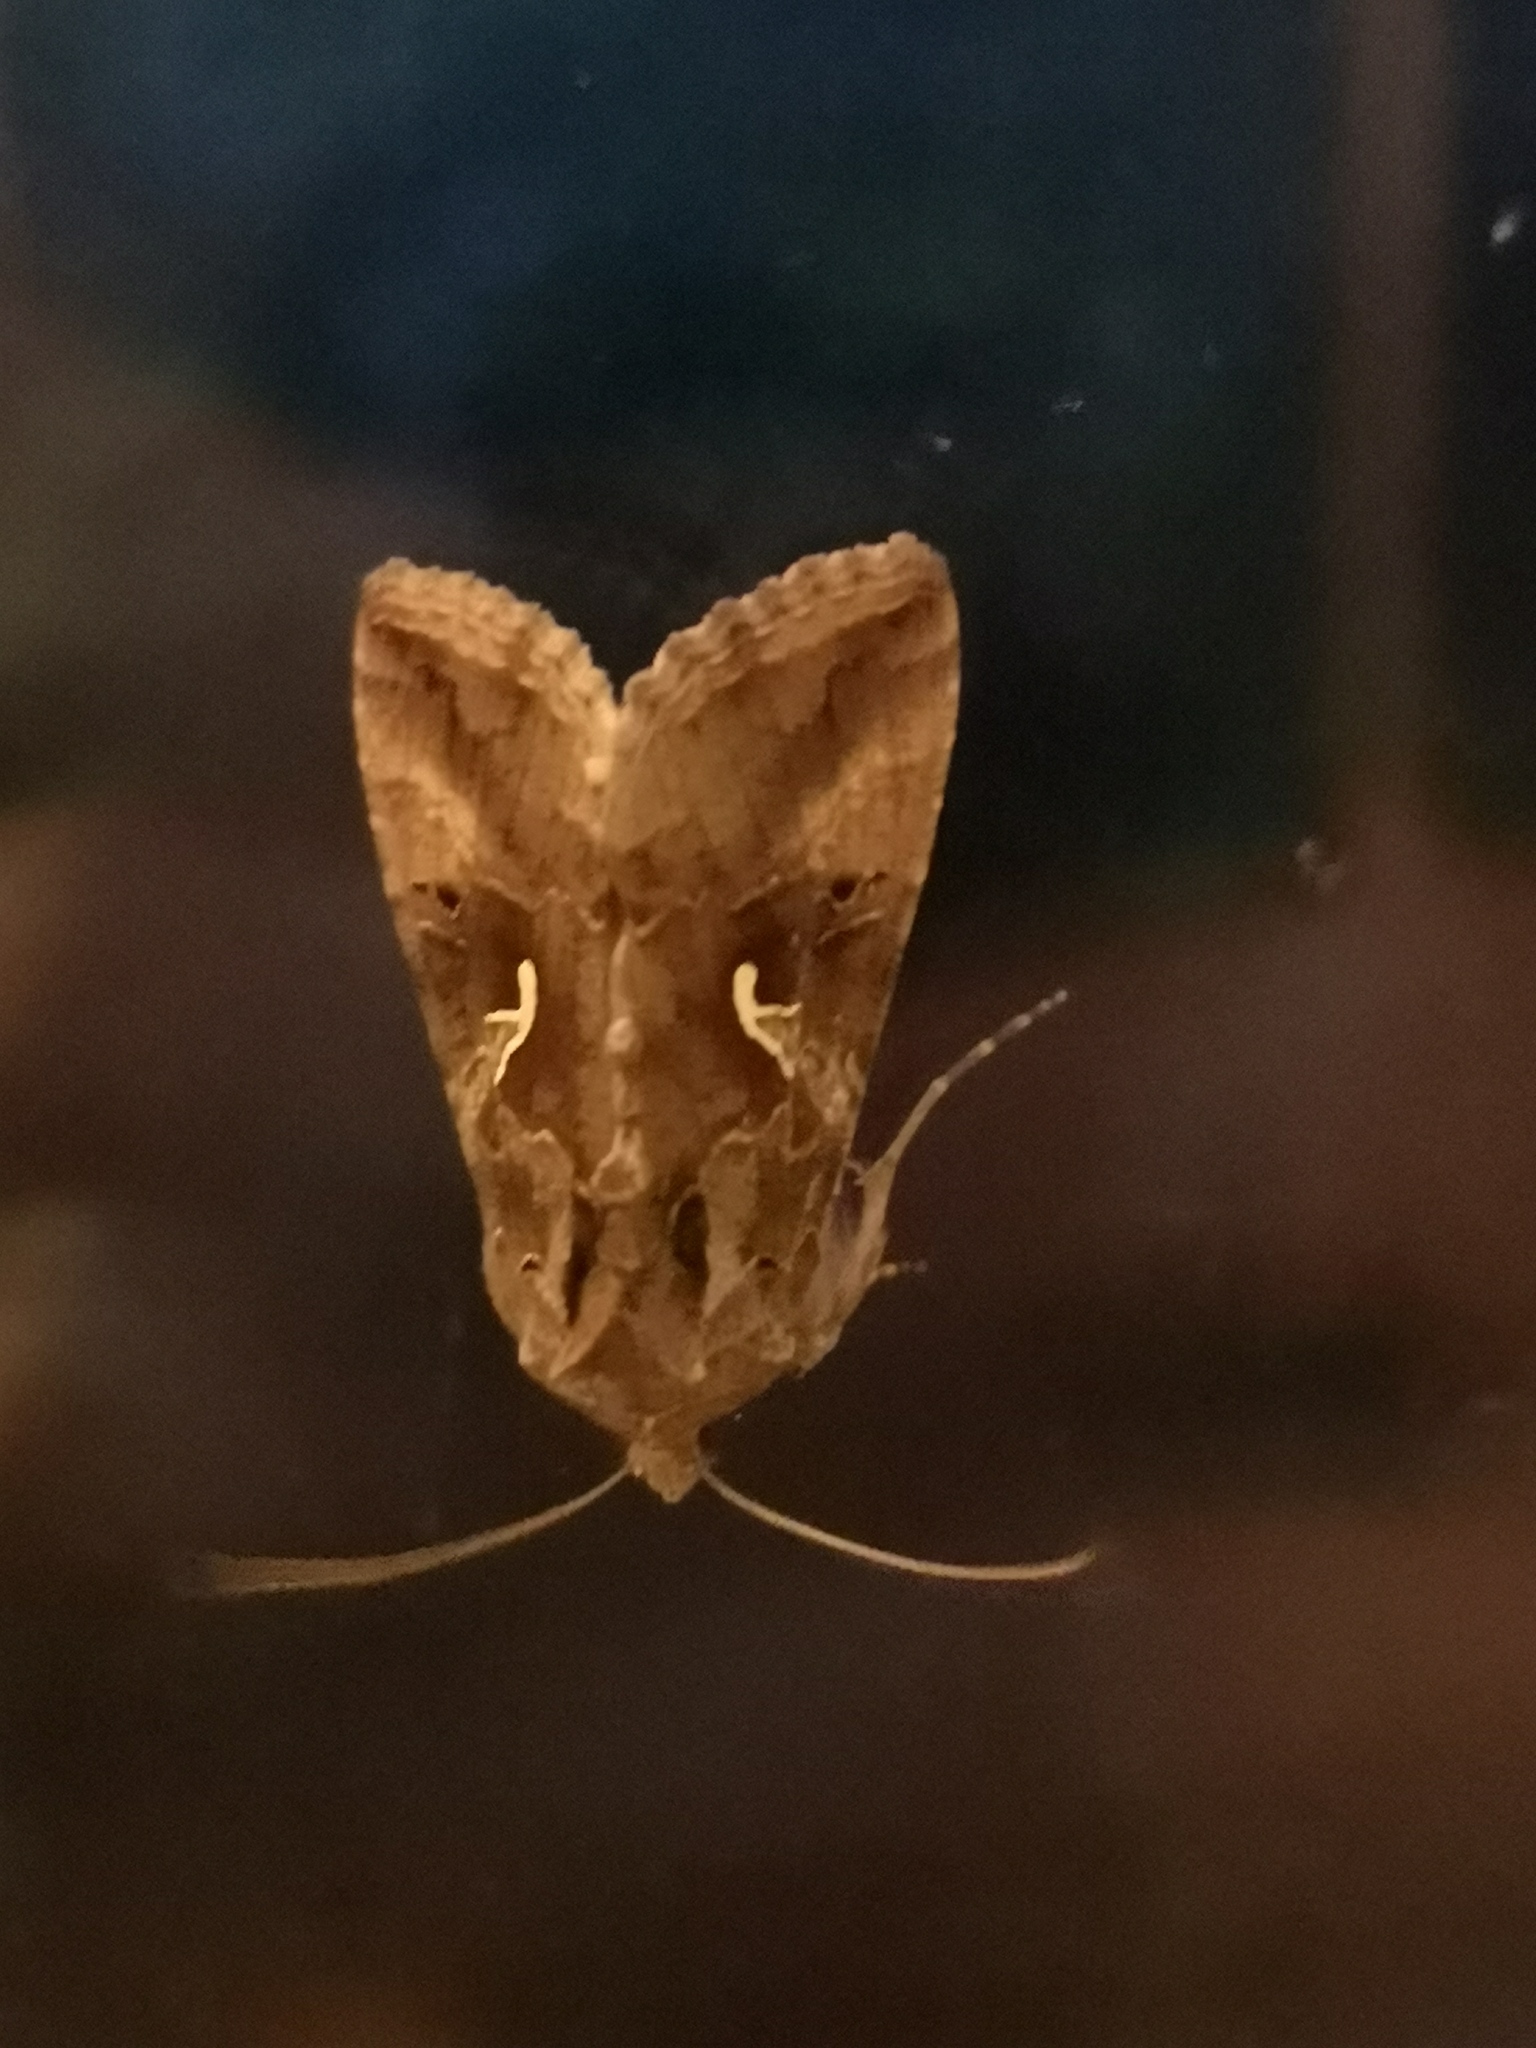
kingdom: Animalia
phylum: Arthropoda
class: Insecta
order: Lepidoptera
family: Noctuidae
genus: Autographa
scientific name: Autographa gamma
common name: Silver y
